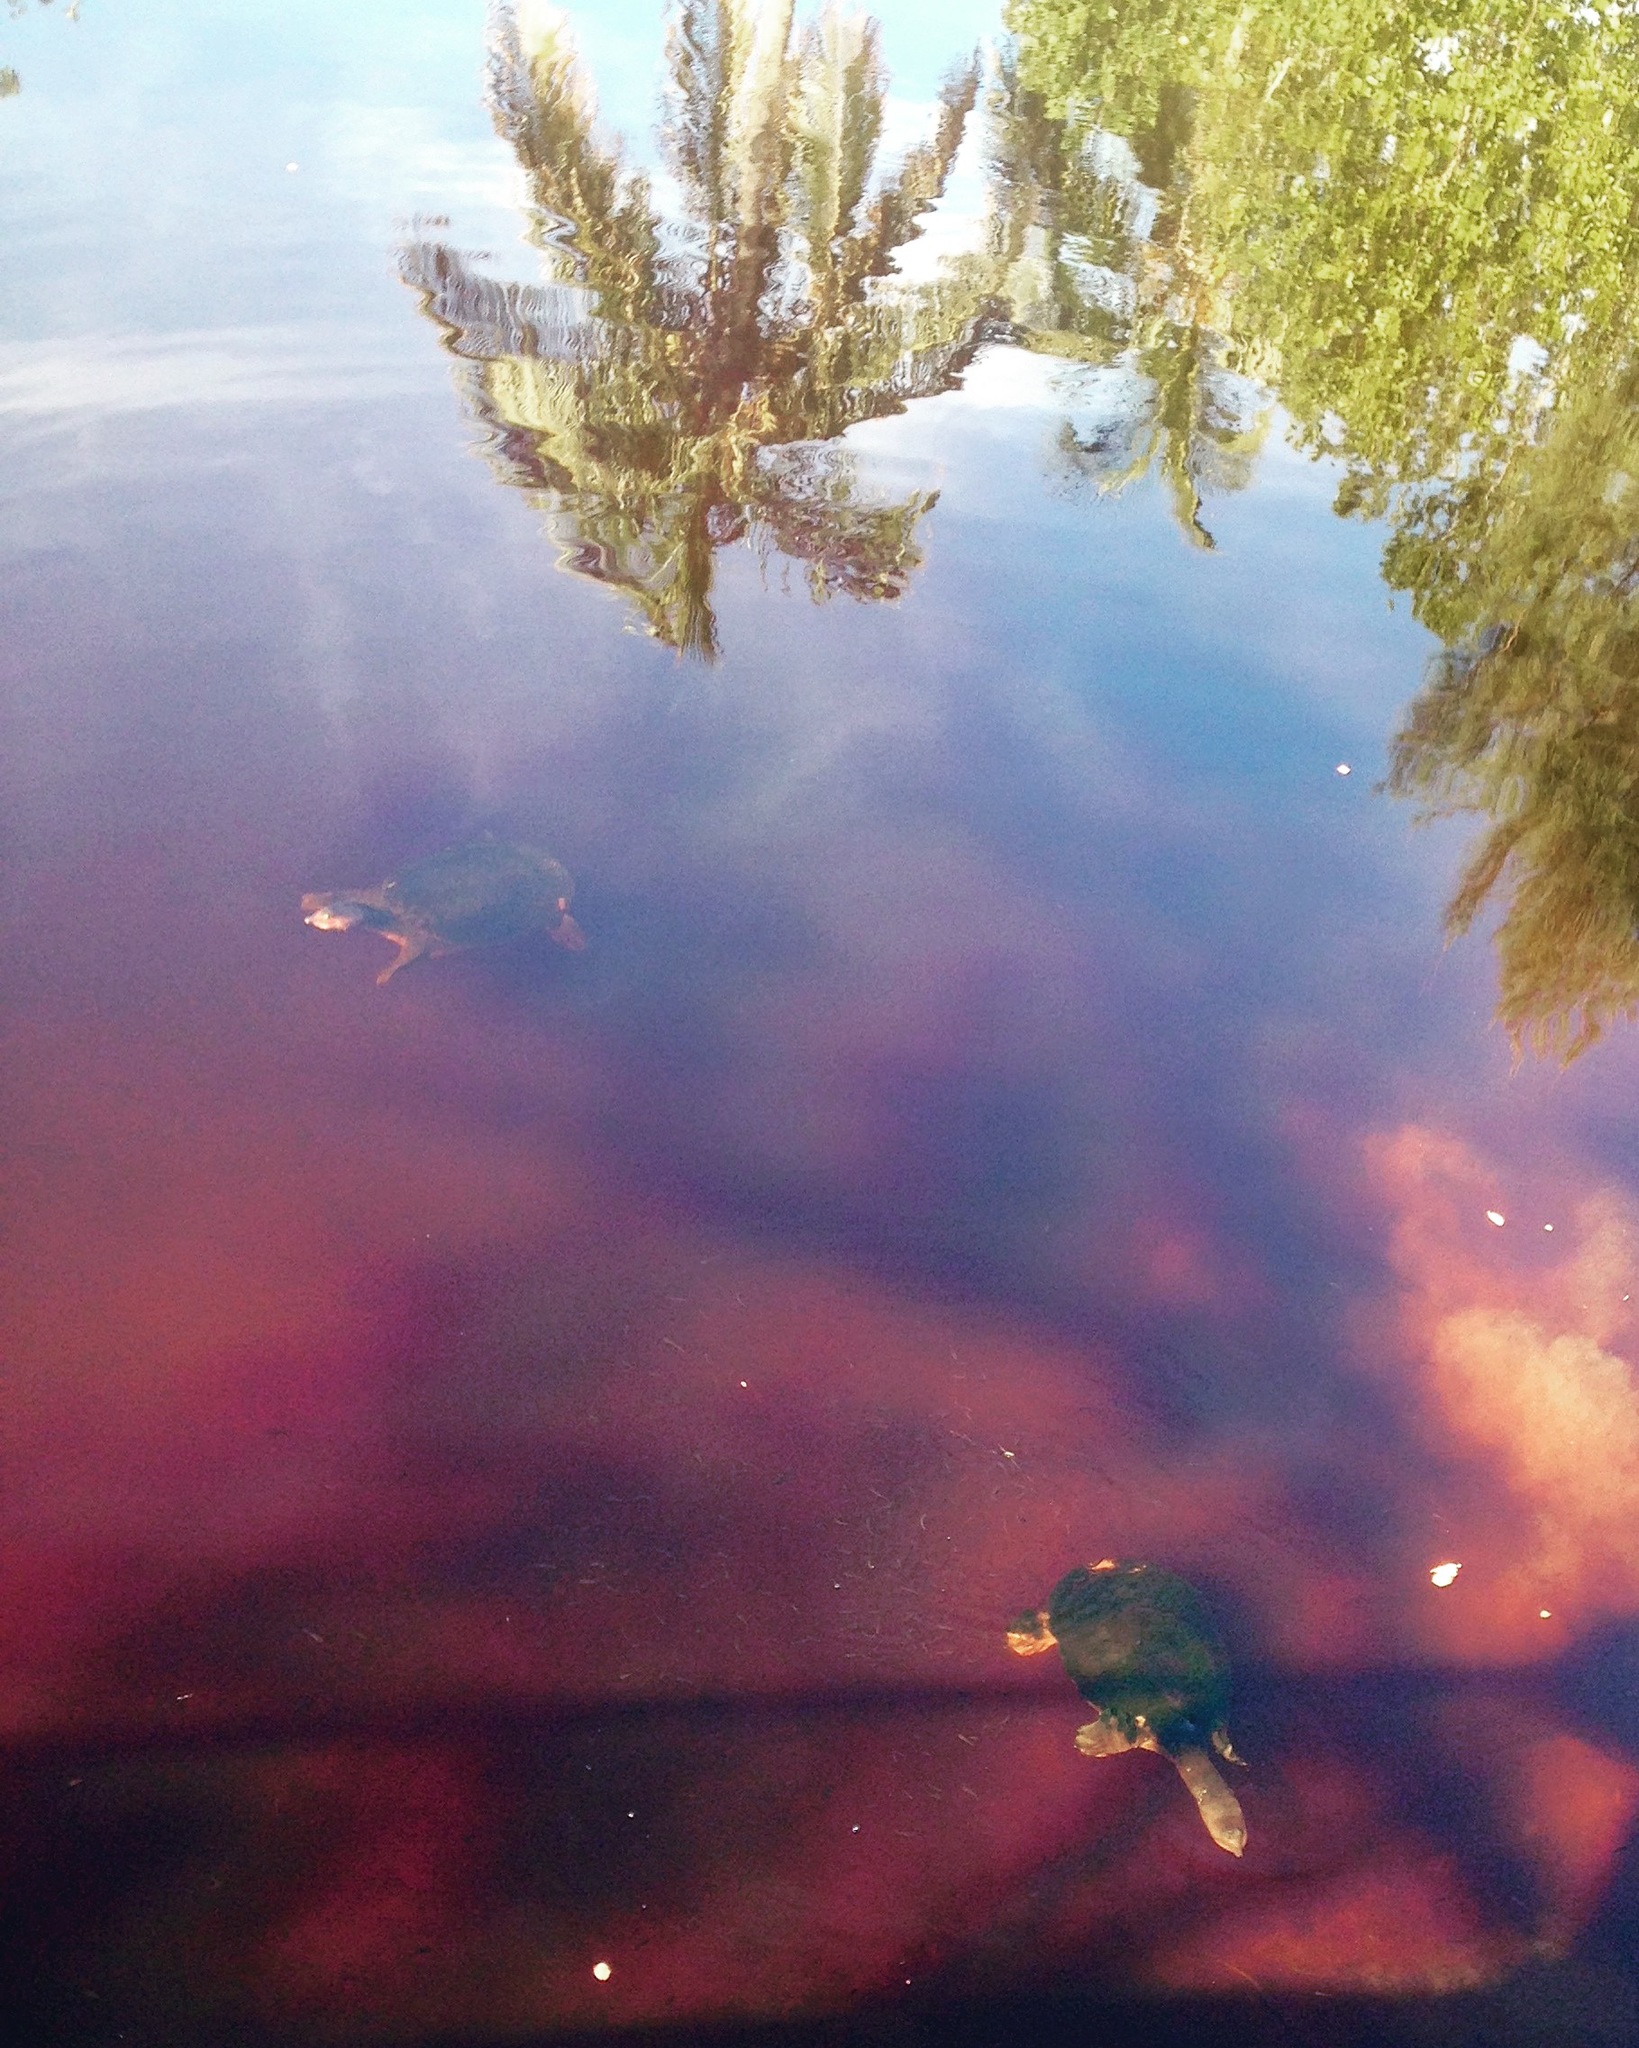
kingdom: Animalia
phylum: Chordata
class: Testudines
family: Trionychidae
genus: Apalone
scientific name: Apalone ferox
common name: Florida softshell turtle
